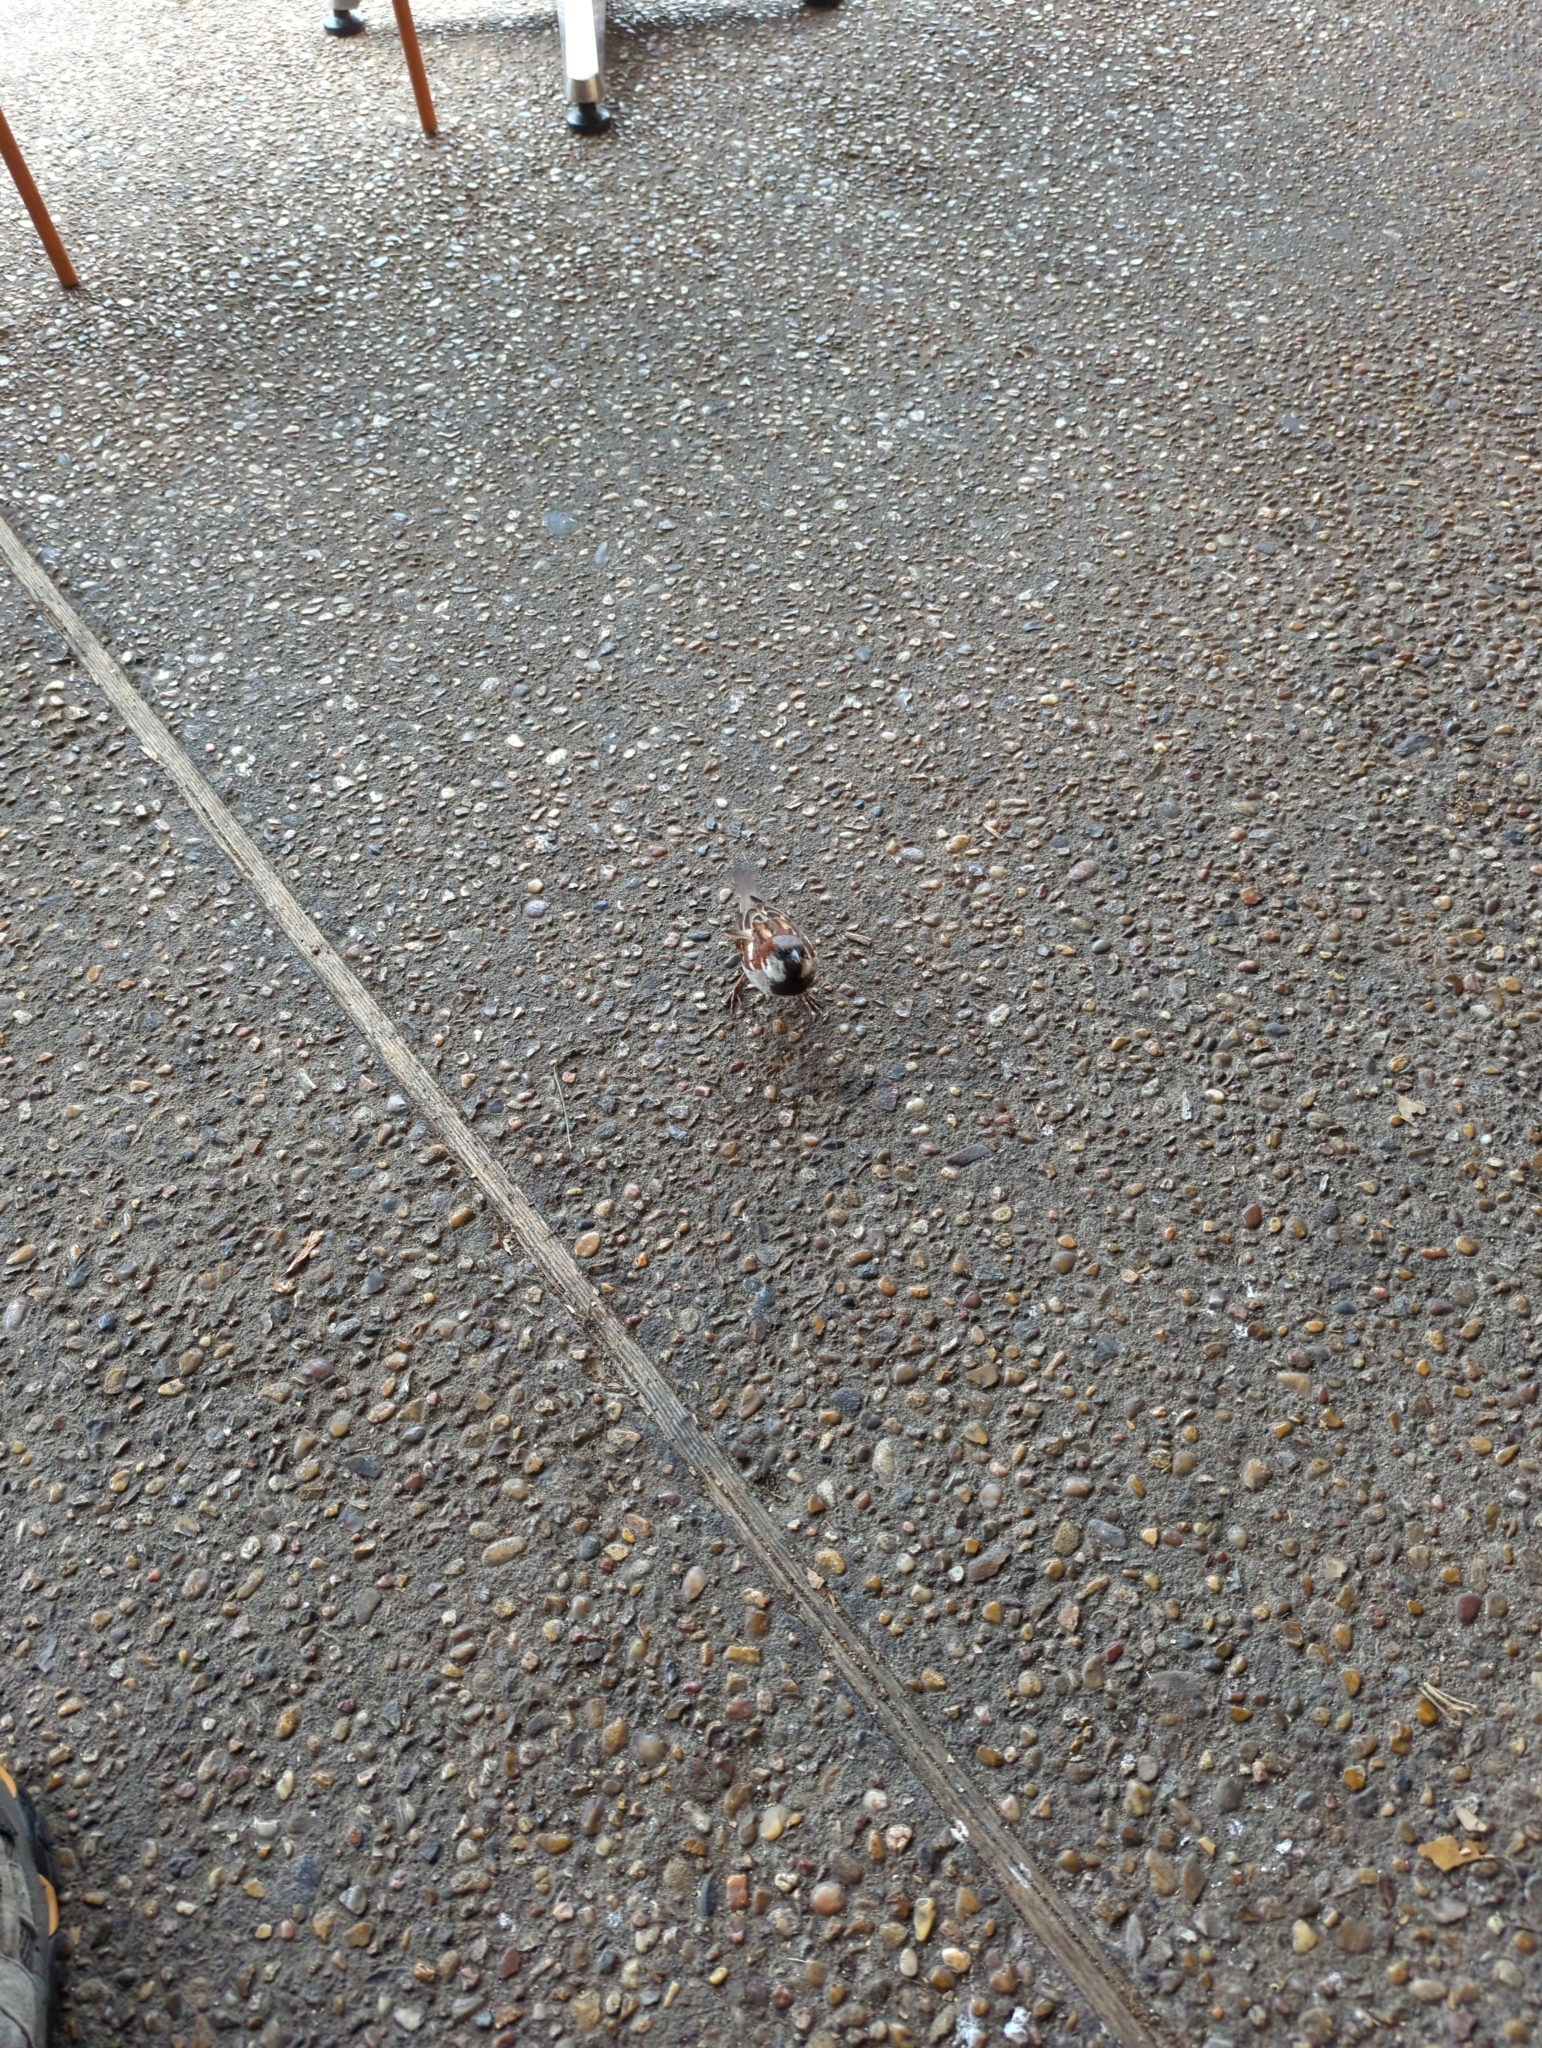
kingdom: Animalia
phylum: Chordata
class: Aves
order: Passeriformes
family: Passeridae
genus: Passer
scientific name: Passer domesticus
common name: House sparrow
